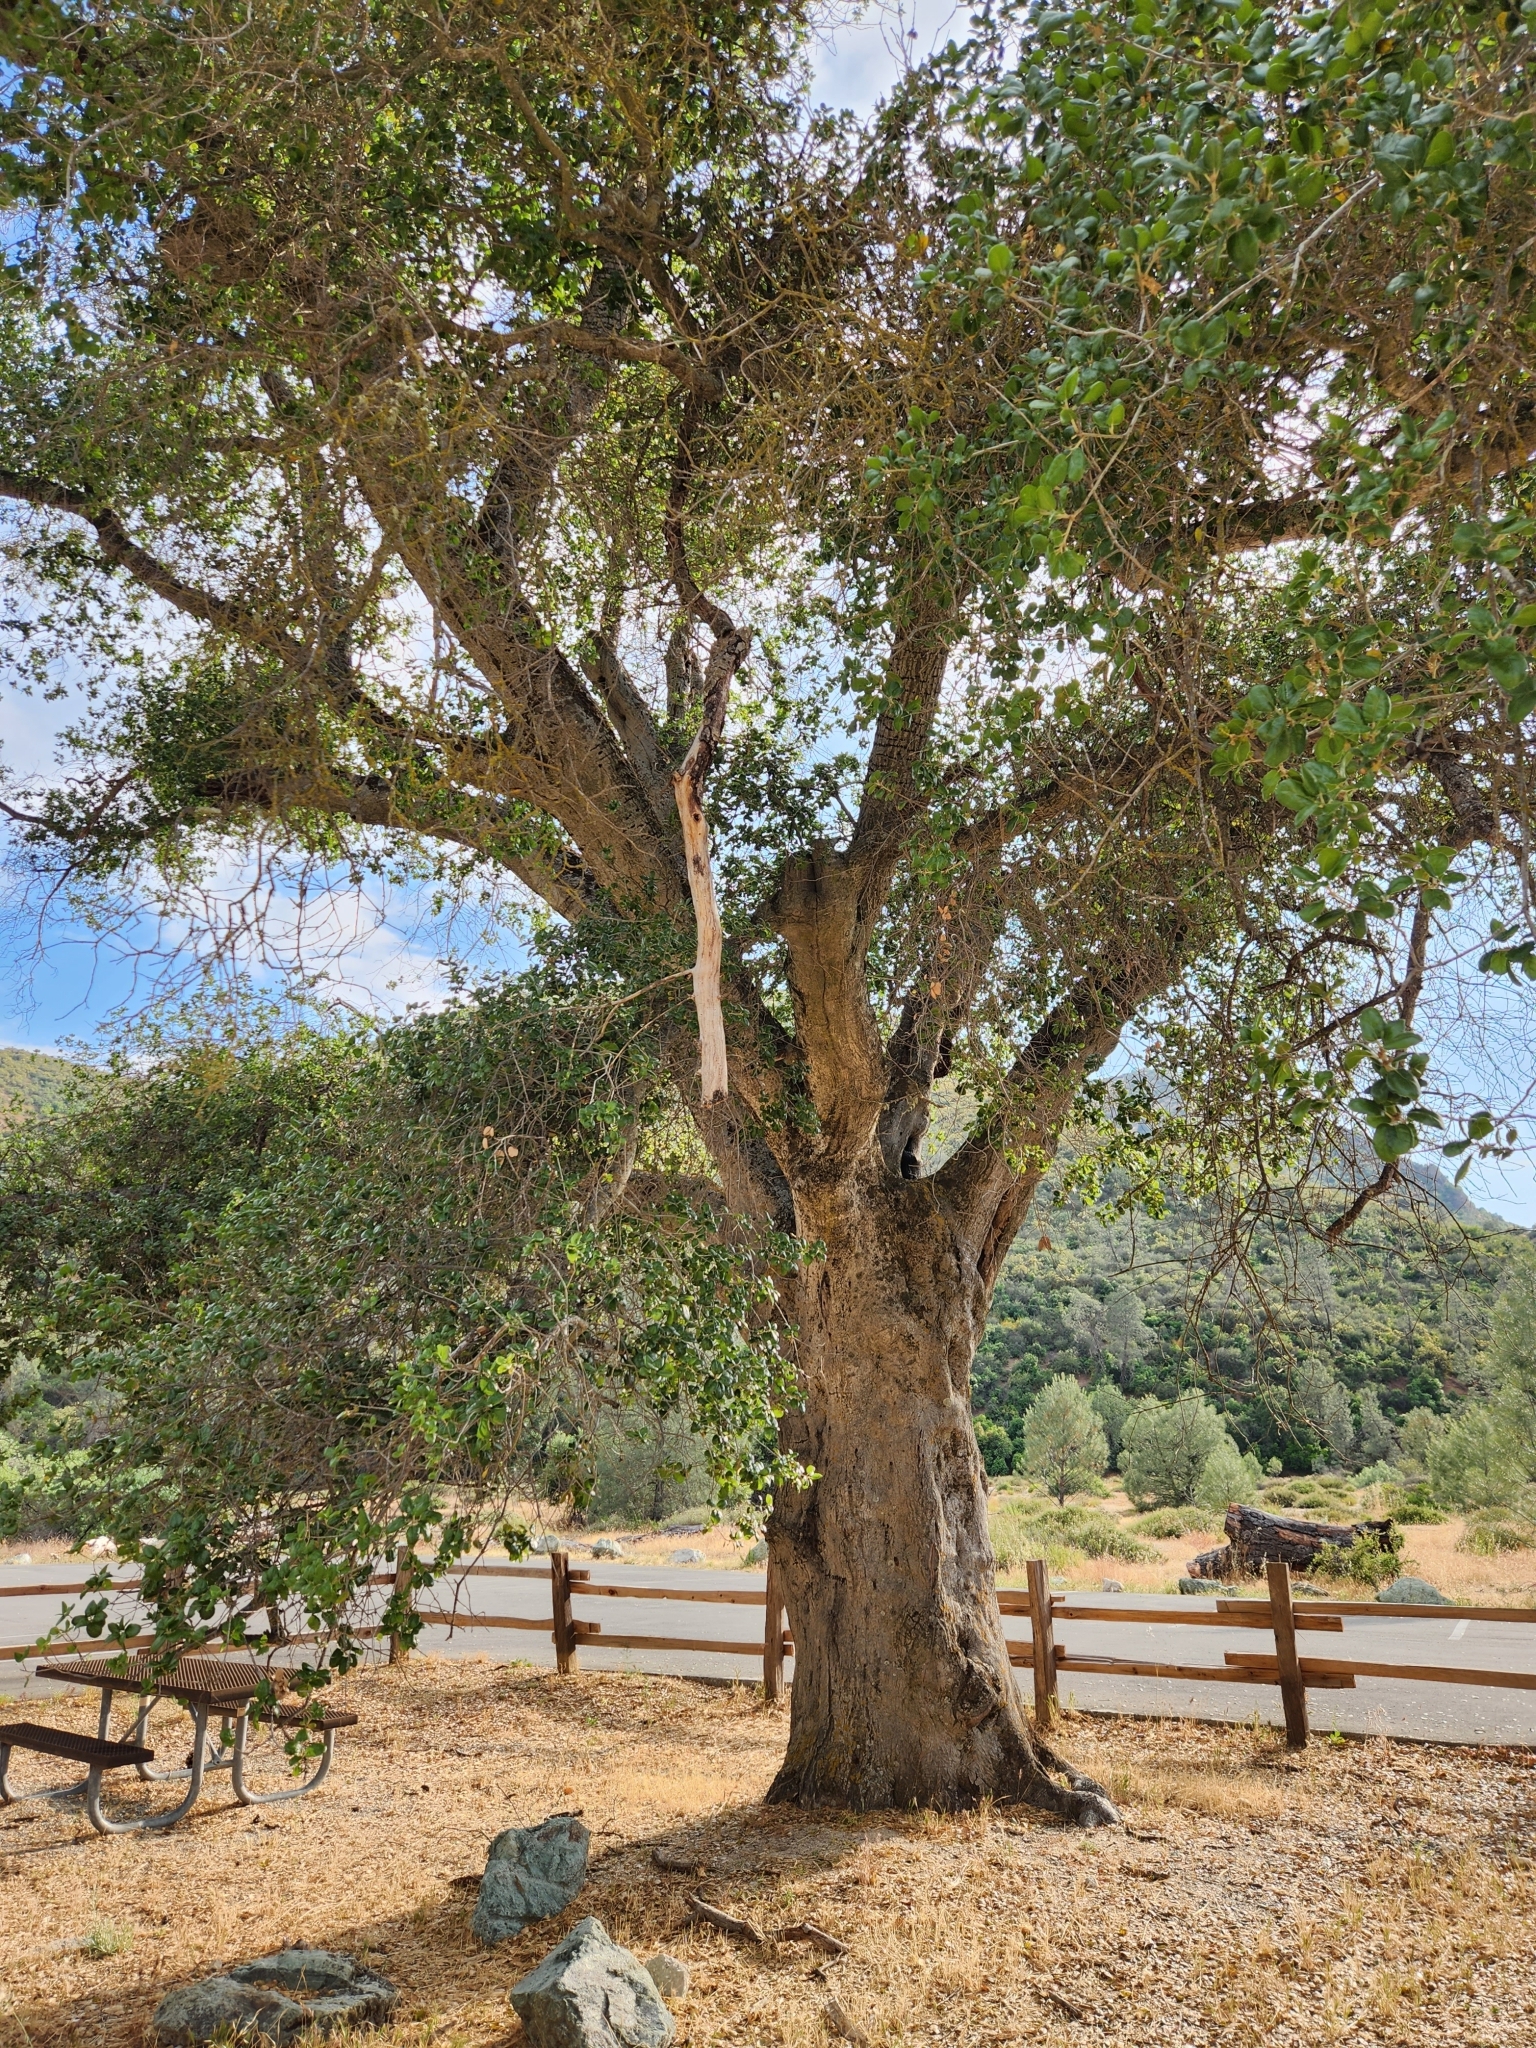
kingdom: Plantae
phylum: Tracheophyta
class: Magnoliopsida
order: Fagales
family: Fagaceae
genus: Quercus
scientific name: Quercus agrifolia
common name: California live oak
